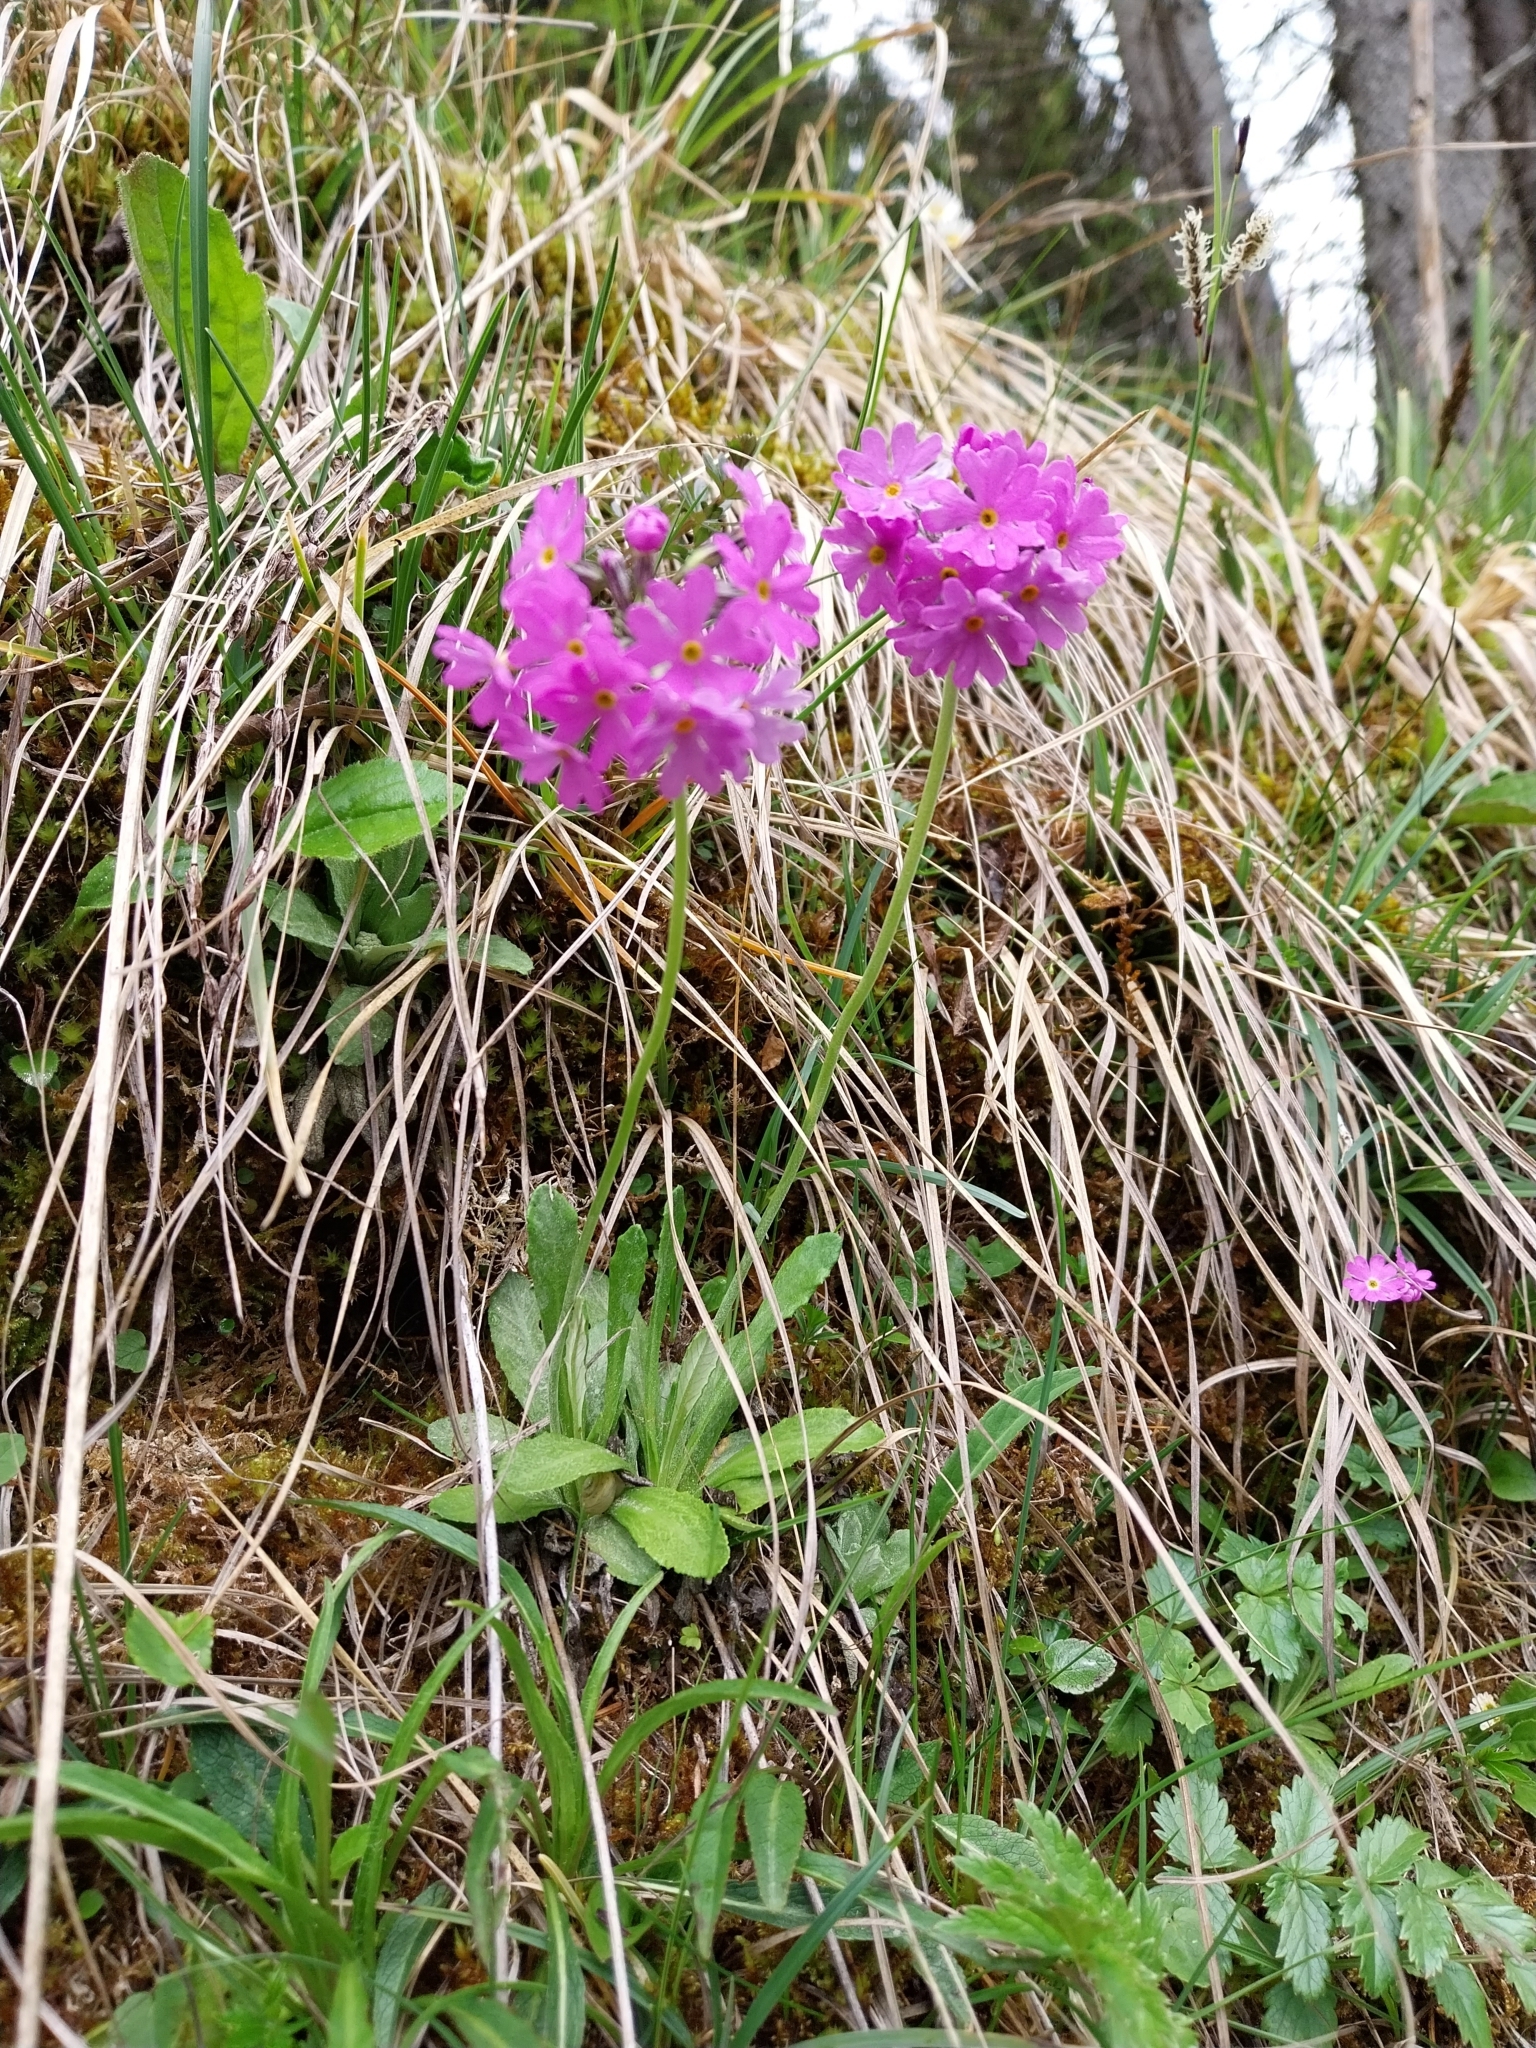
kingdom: Plantae
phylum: Tracheophyta
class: Magnoliopsida
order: Ericales
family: Primulaceae
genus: Primula
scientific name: Primula farinosa
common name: Bird's-eye primrose
